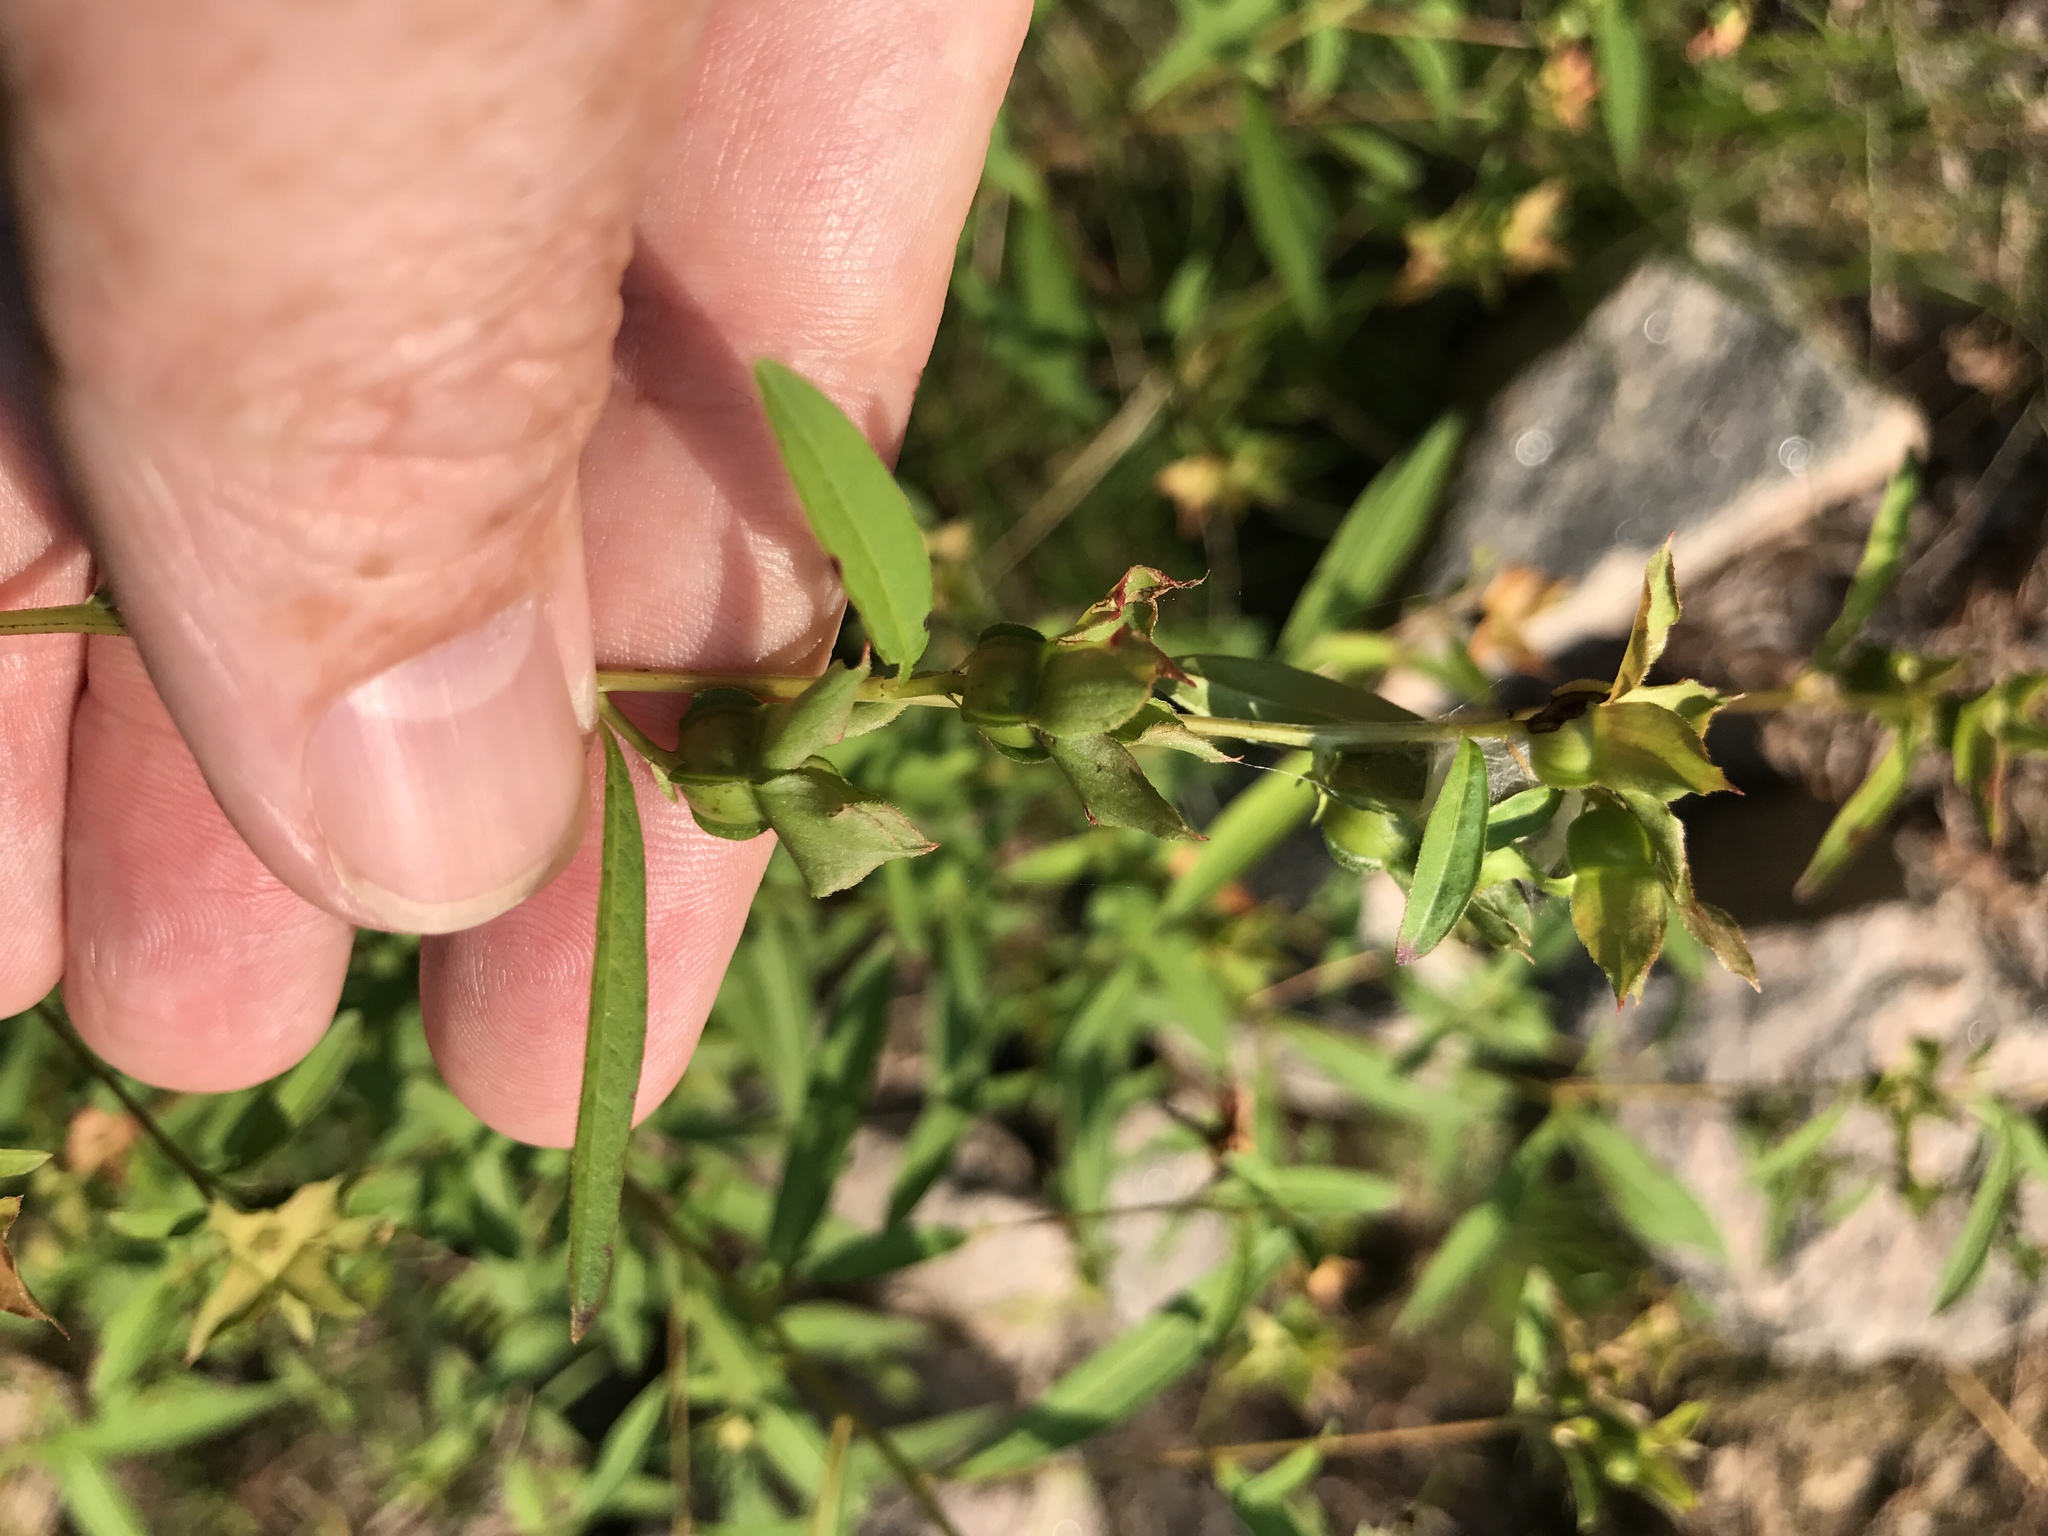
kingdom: Plantae
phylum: Tracheophyta
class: Magnoliopsida
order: Myrtales
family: Onagraceae
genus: Ludwigia
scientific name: Ludwigia alternifolia
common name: Rattlebox
